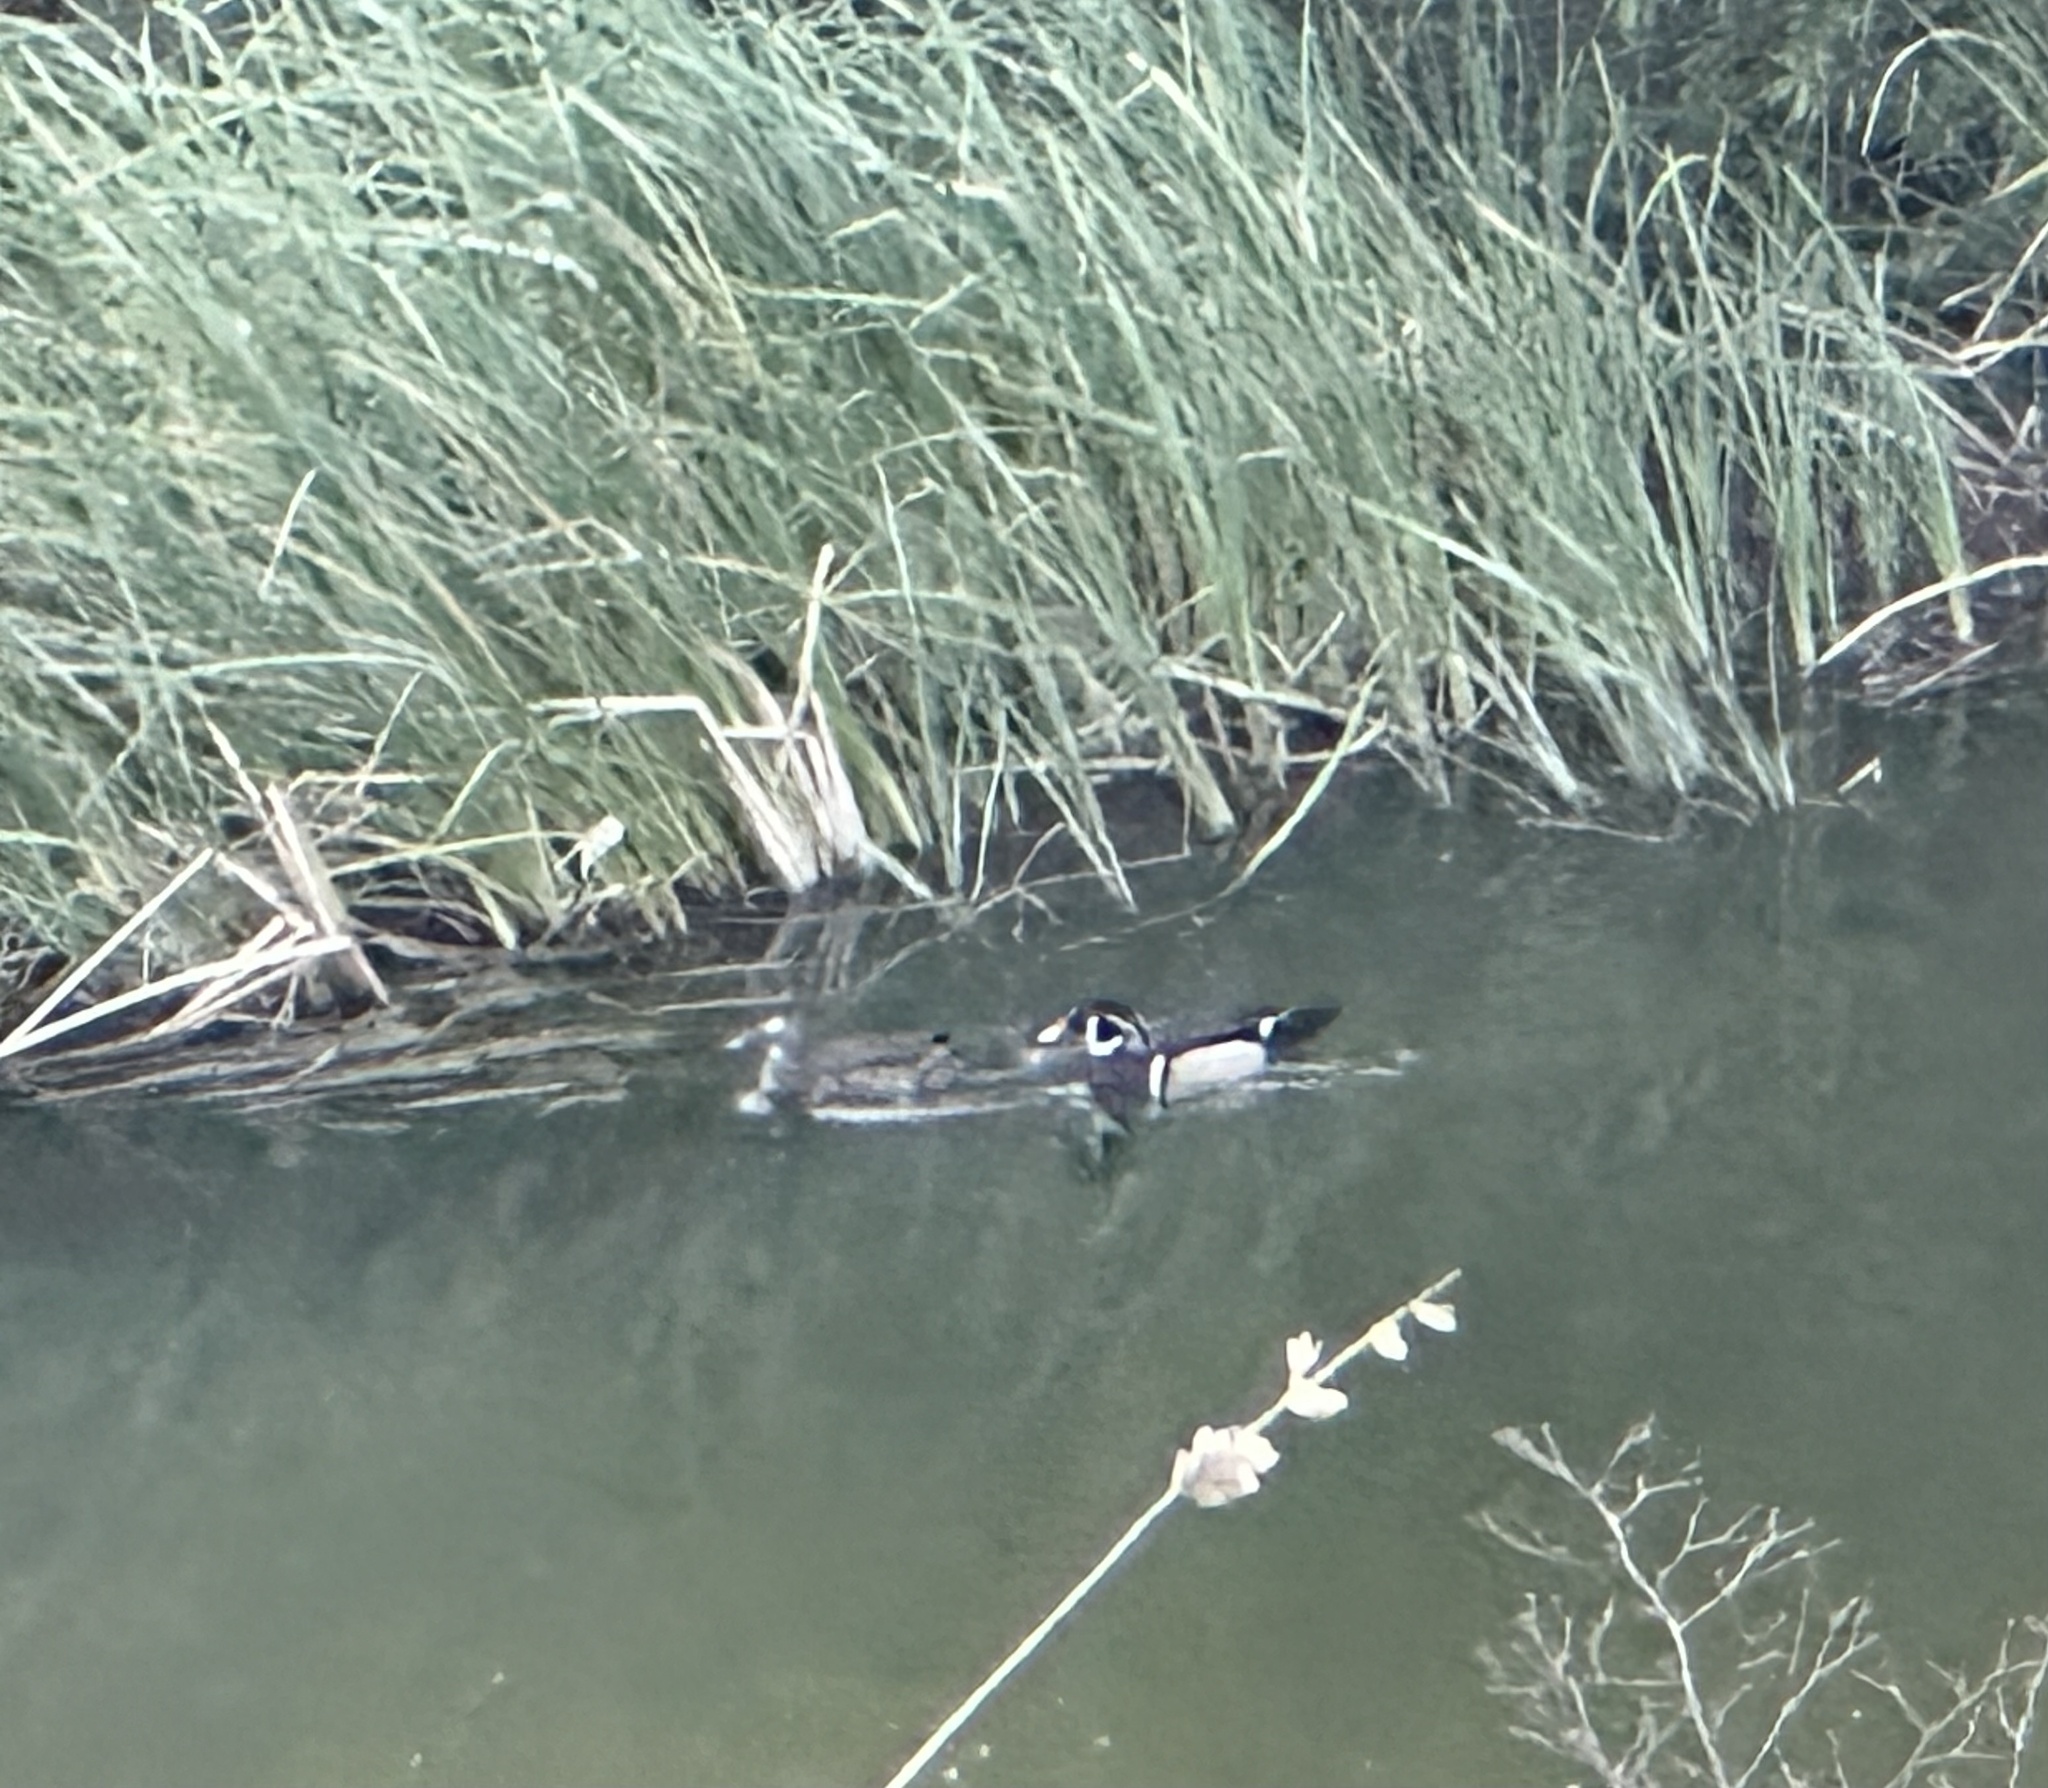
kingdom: Animalia
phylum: Chordata
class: Aves
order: Anseriformes
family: Anatidae
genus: Aix
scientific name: Aix sponsa
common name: Wood duck
